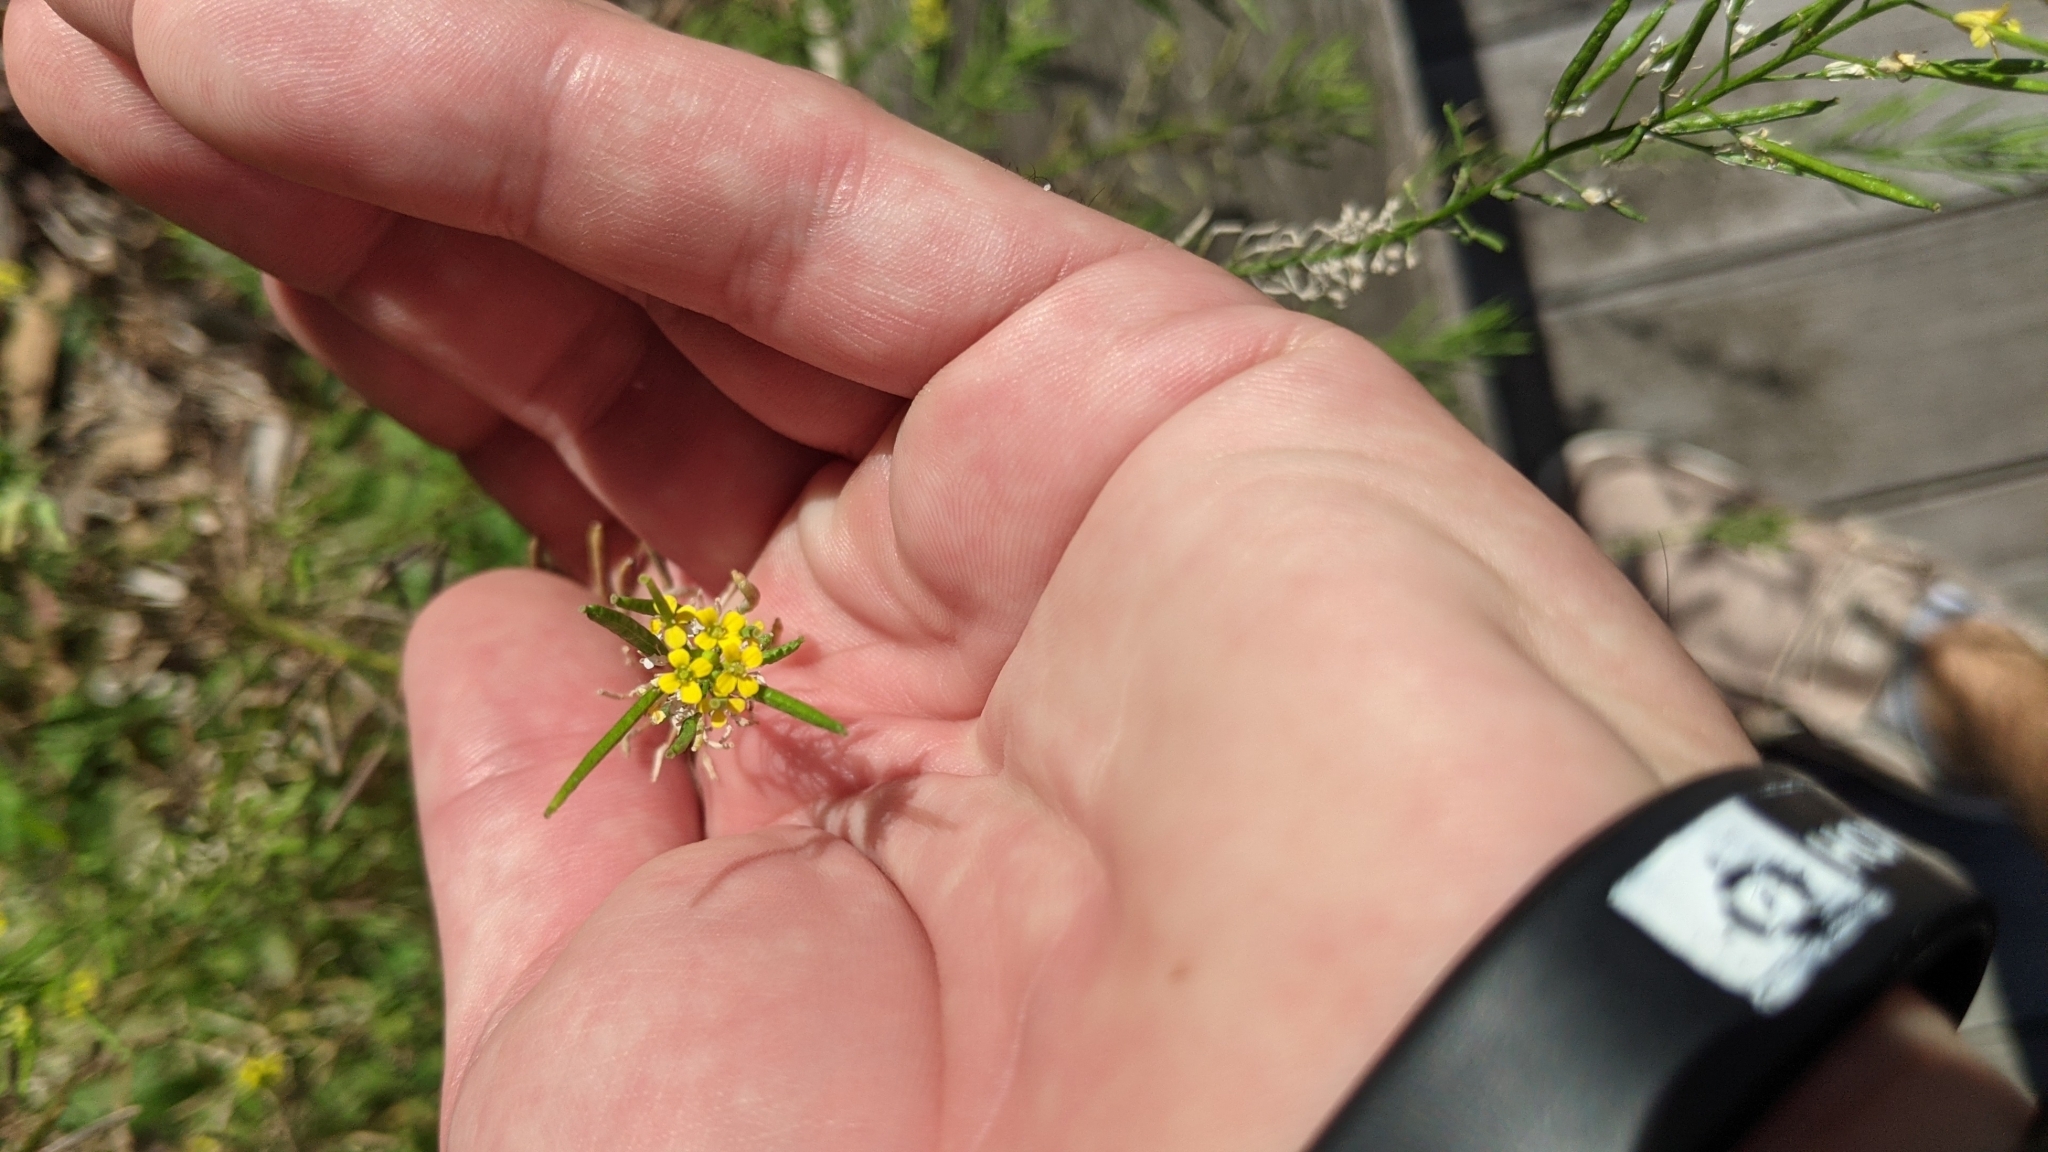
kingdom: Plantae
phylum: Tracheophyta
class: Magnoliopsida
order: Brassicales
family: Brassicaceae
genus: Erysimum
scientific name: Erysimum cheiranthoides
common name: Treacle mustard
